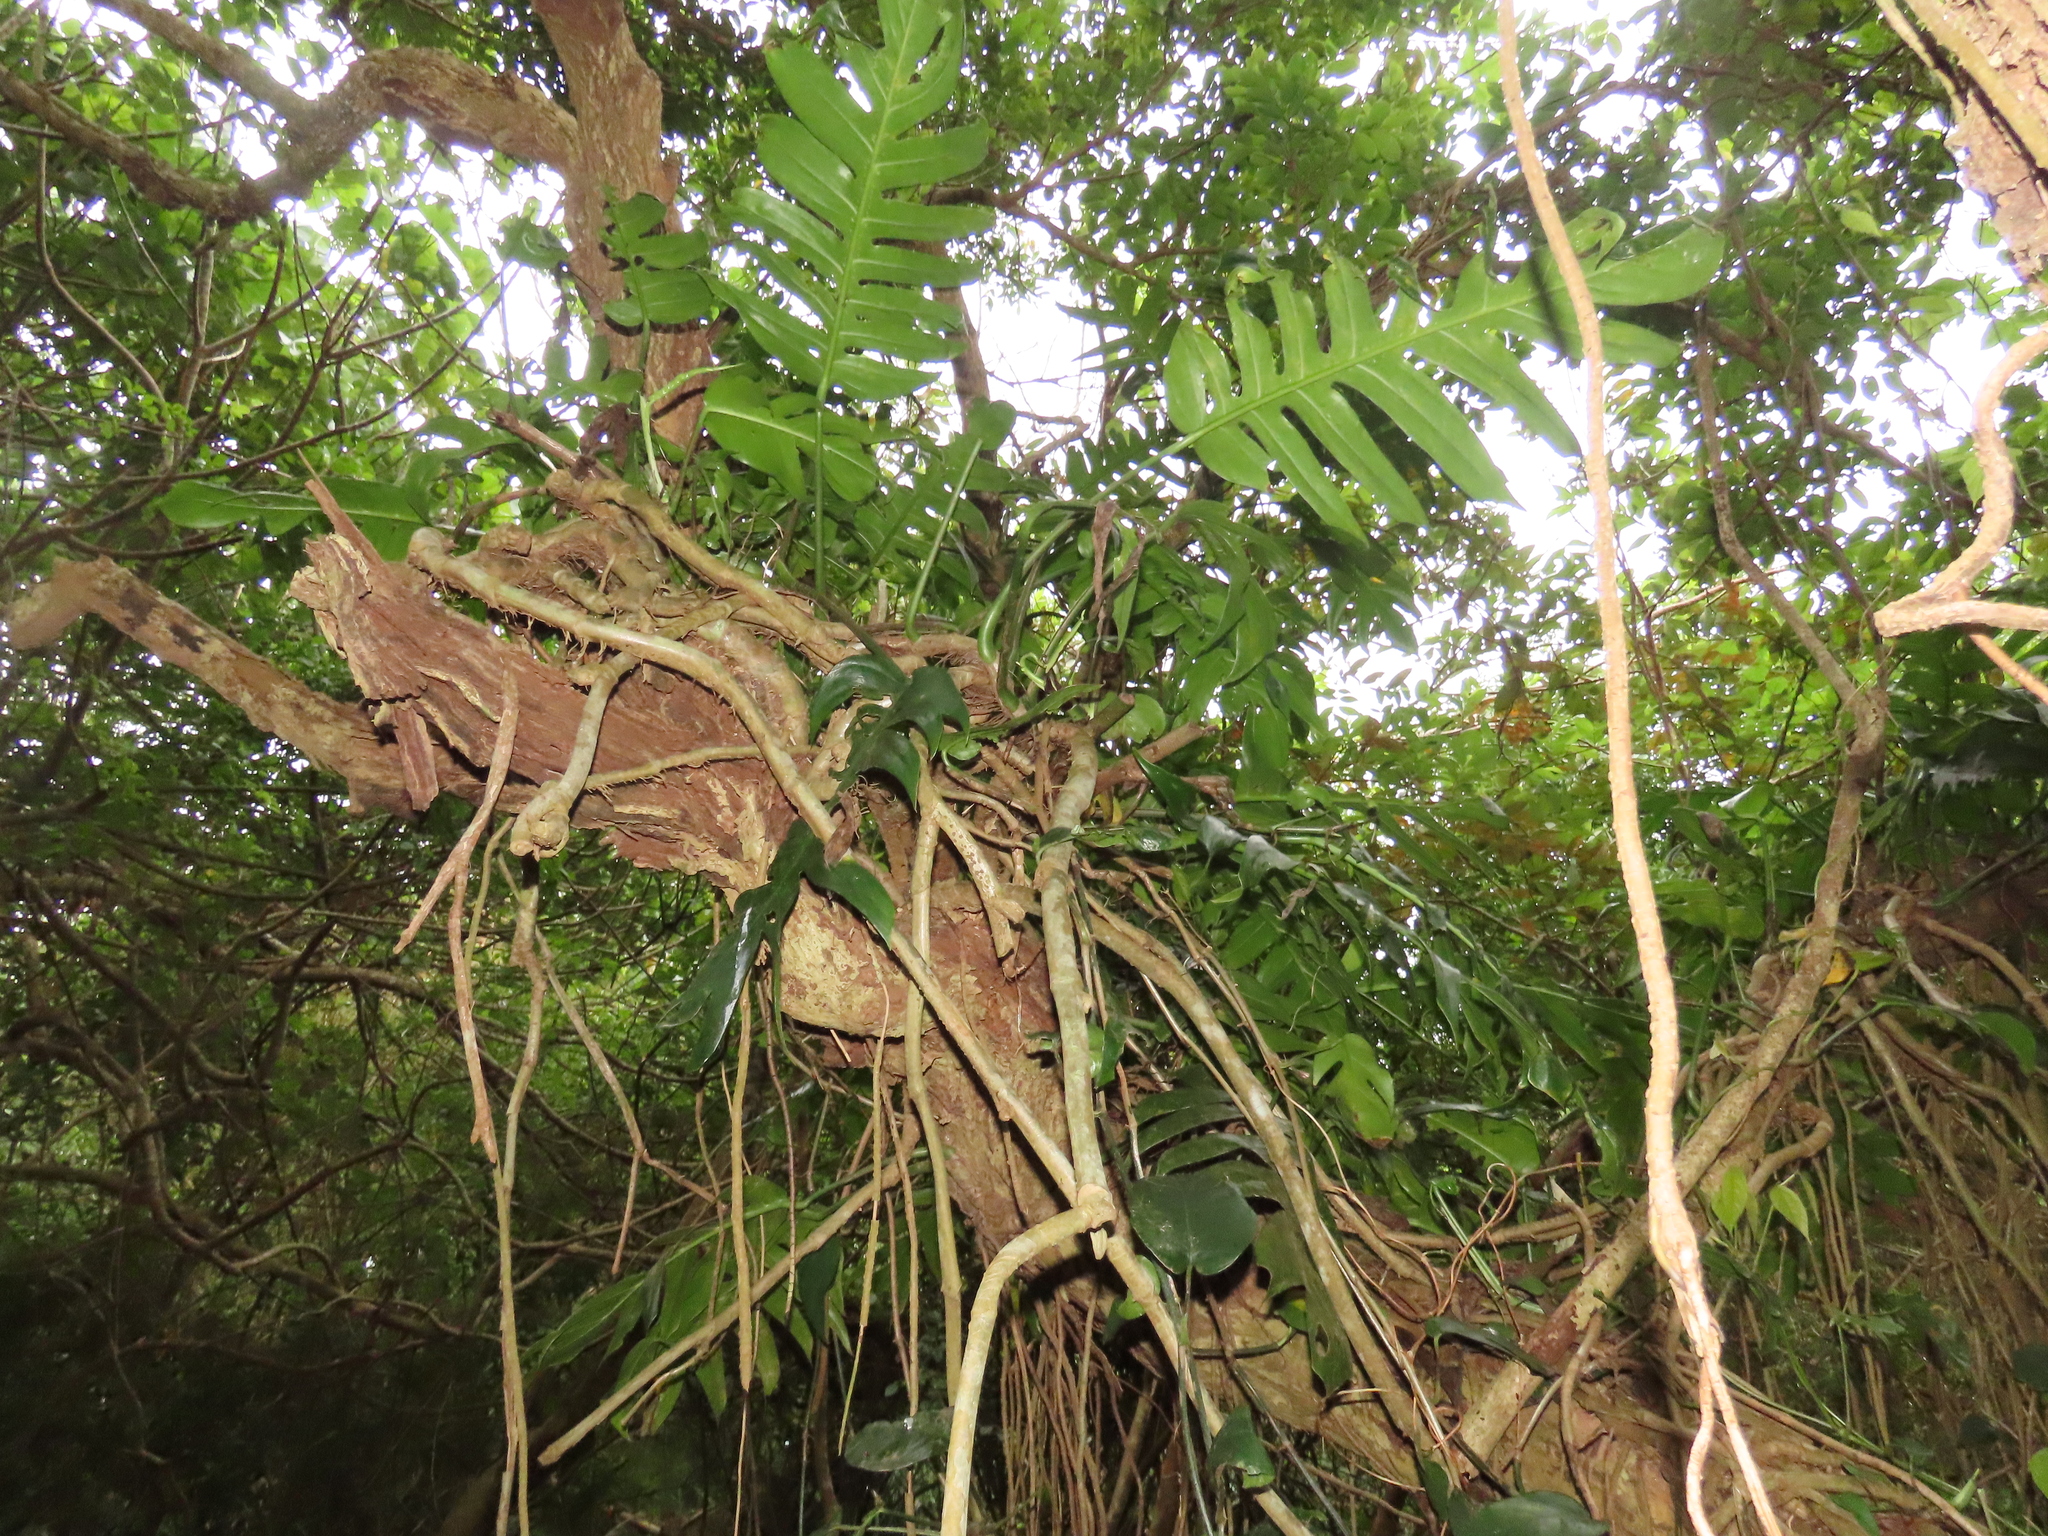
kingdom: Plantae
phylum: Tracheophyta
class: Liliopsida
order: Alismatales
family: Araceae
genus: Epipremnum
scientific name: Epipremnum pinnatum
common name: Centipede tongavine
